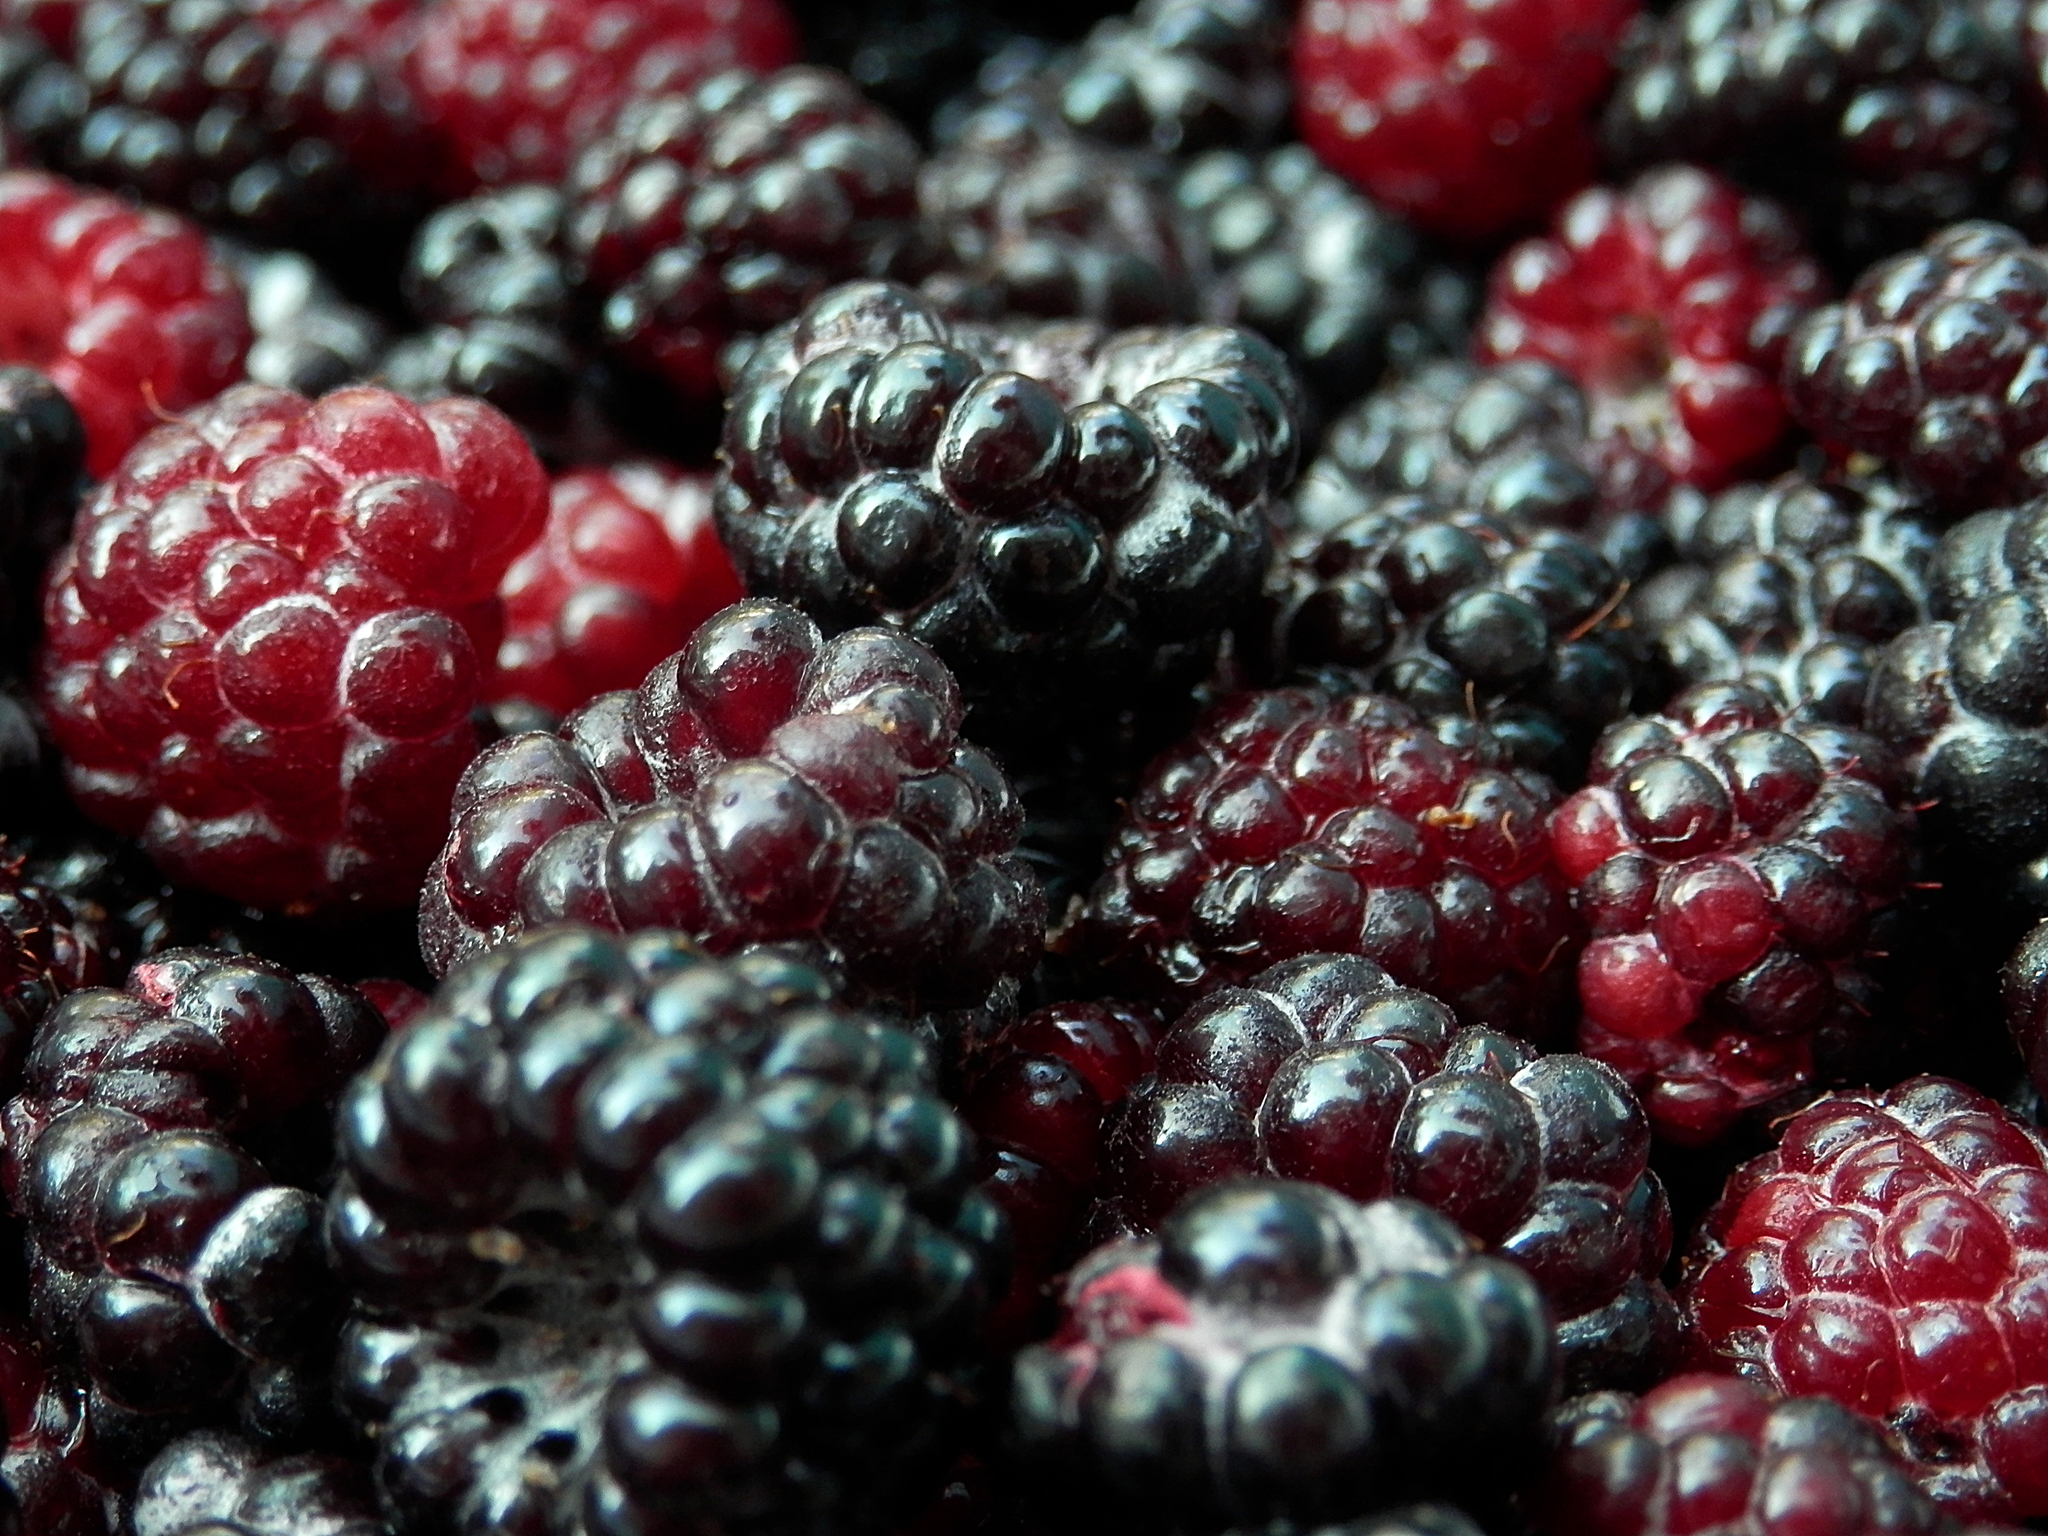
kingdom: Plantae
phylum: Tracheophyta
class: Magnoliopsida
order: Rosales
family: Rosaceae
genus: Rubus
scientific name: Rubus occidentalis
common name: Black raspberry
